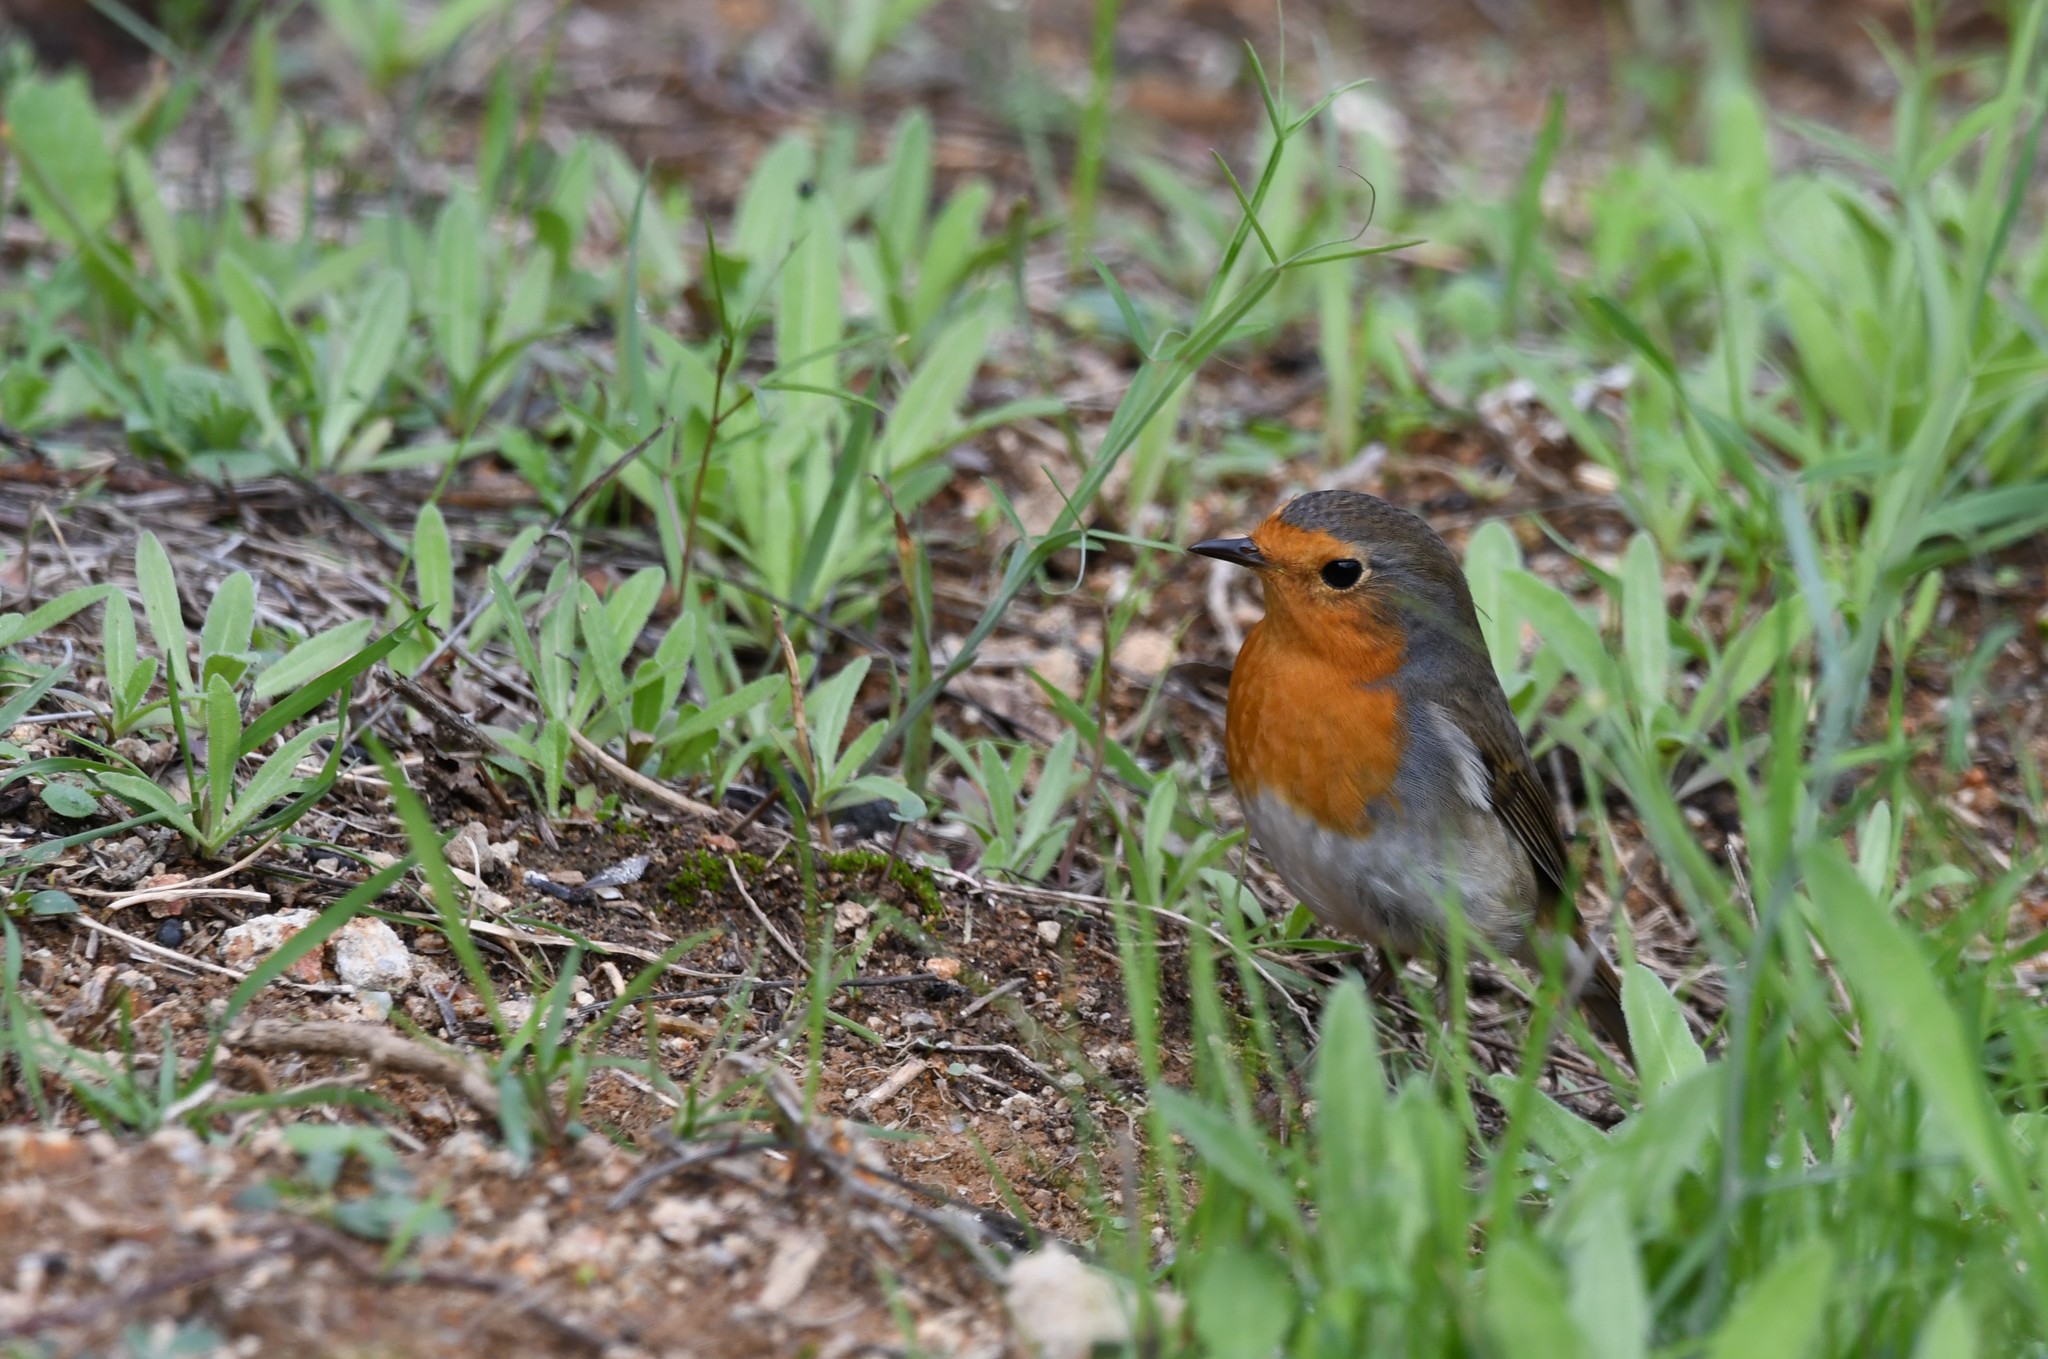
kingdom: Animalia
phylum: Chordata
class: Aves
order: Passeriformes
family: Muscicapidae
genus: Erithacus
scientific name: Erithacus rubecula
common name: European robin
